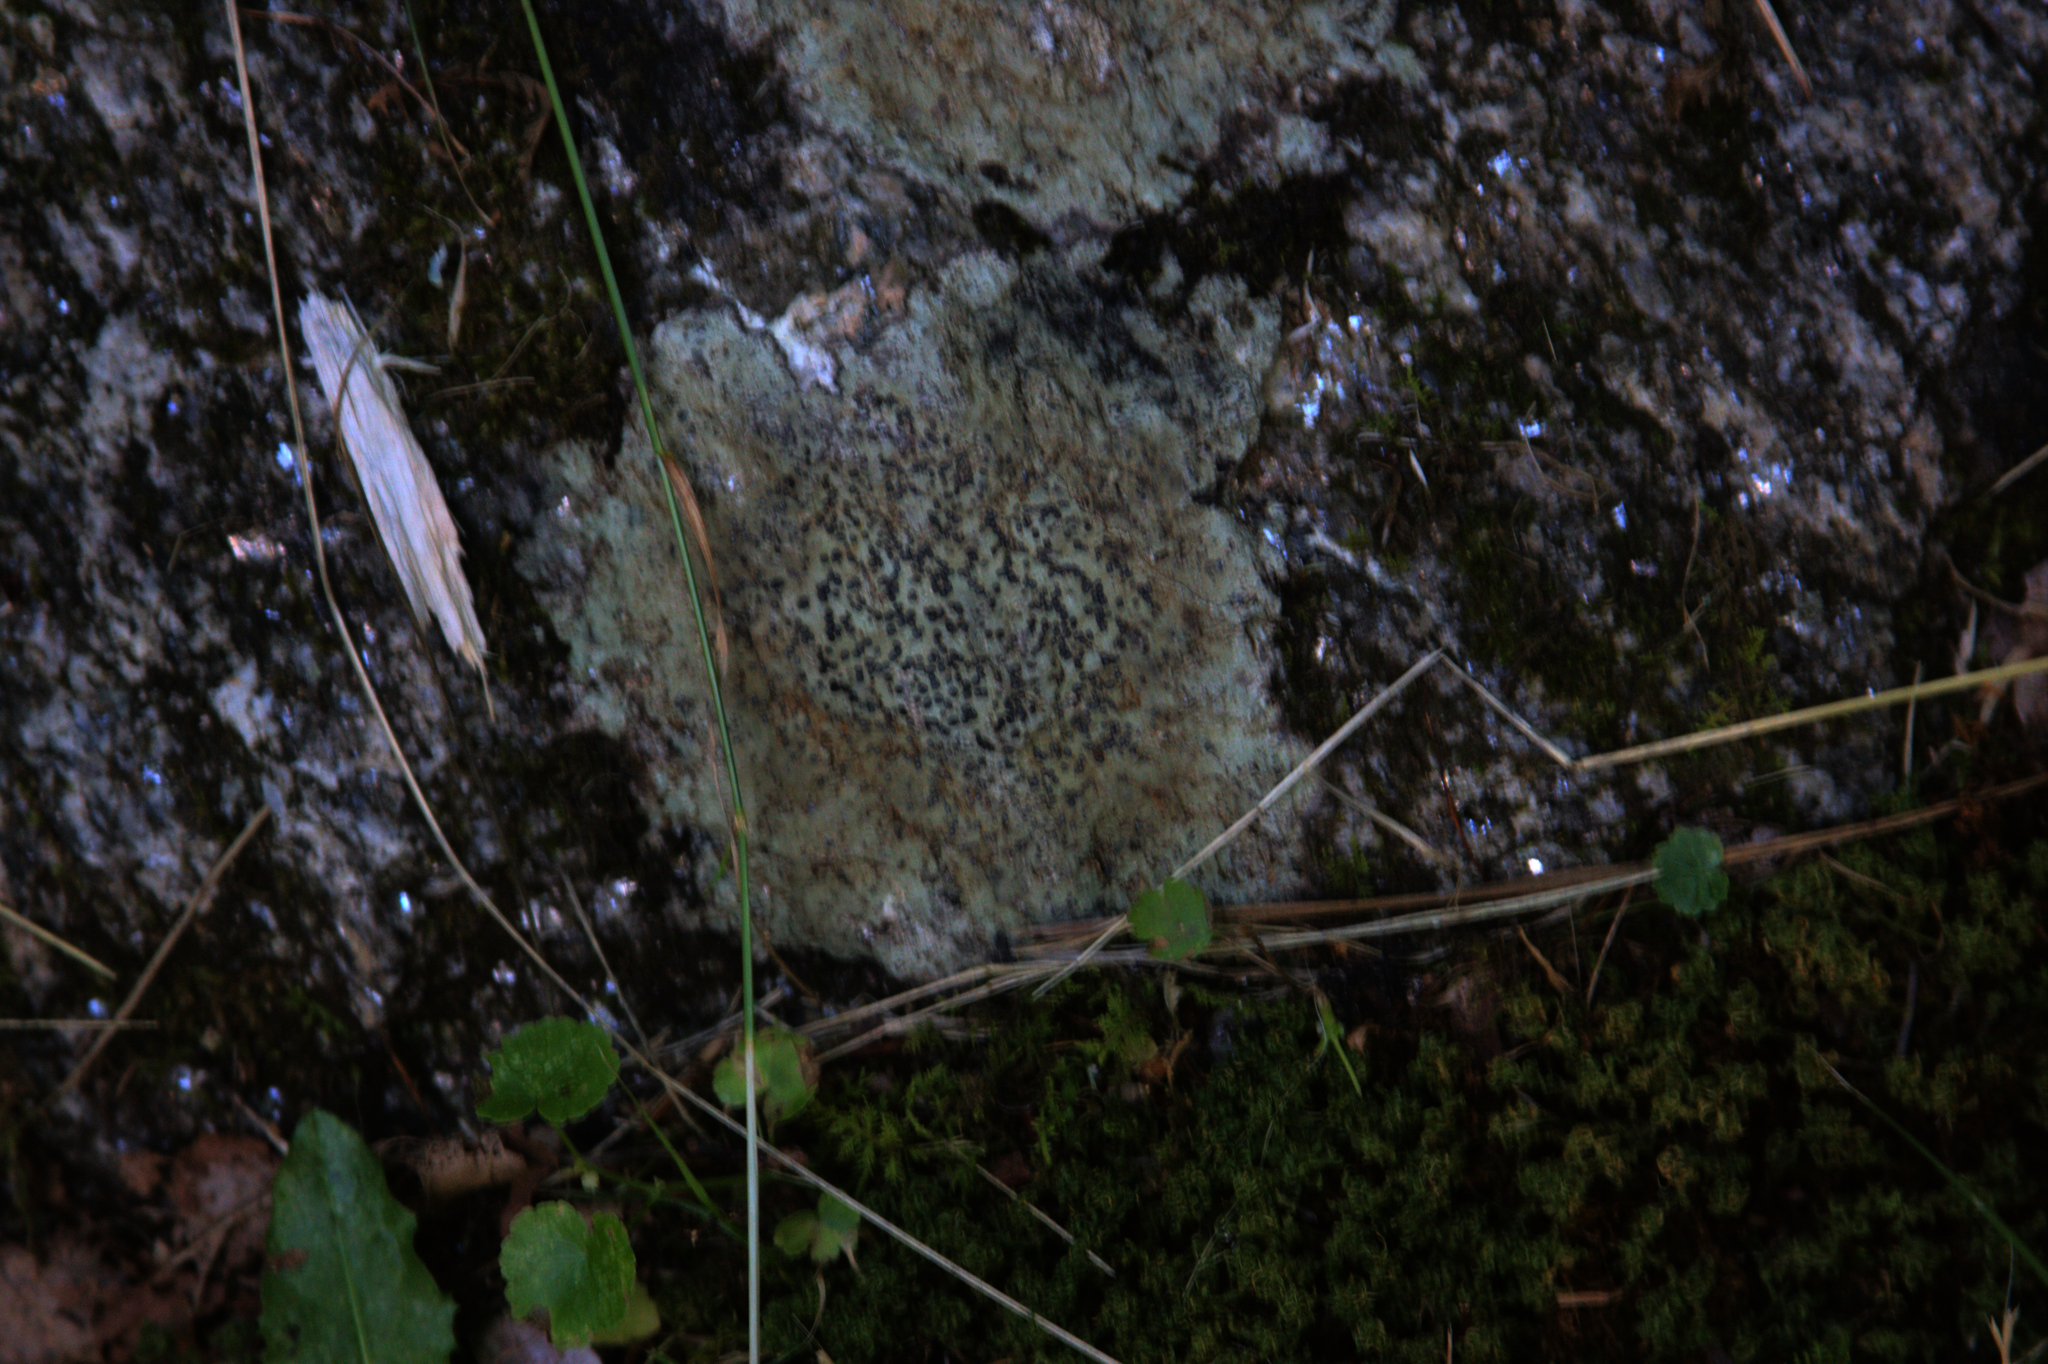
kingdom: Fungi
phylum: Ascomycota
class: Lecanoromycetes
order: Lecideales
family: Lecideaceae
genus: Porpidia
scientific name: Porpidia albocaerulescens
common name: Smokey-eyed boulder lichen
